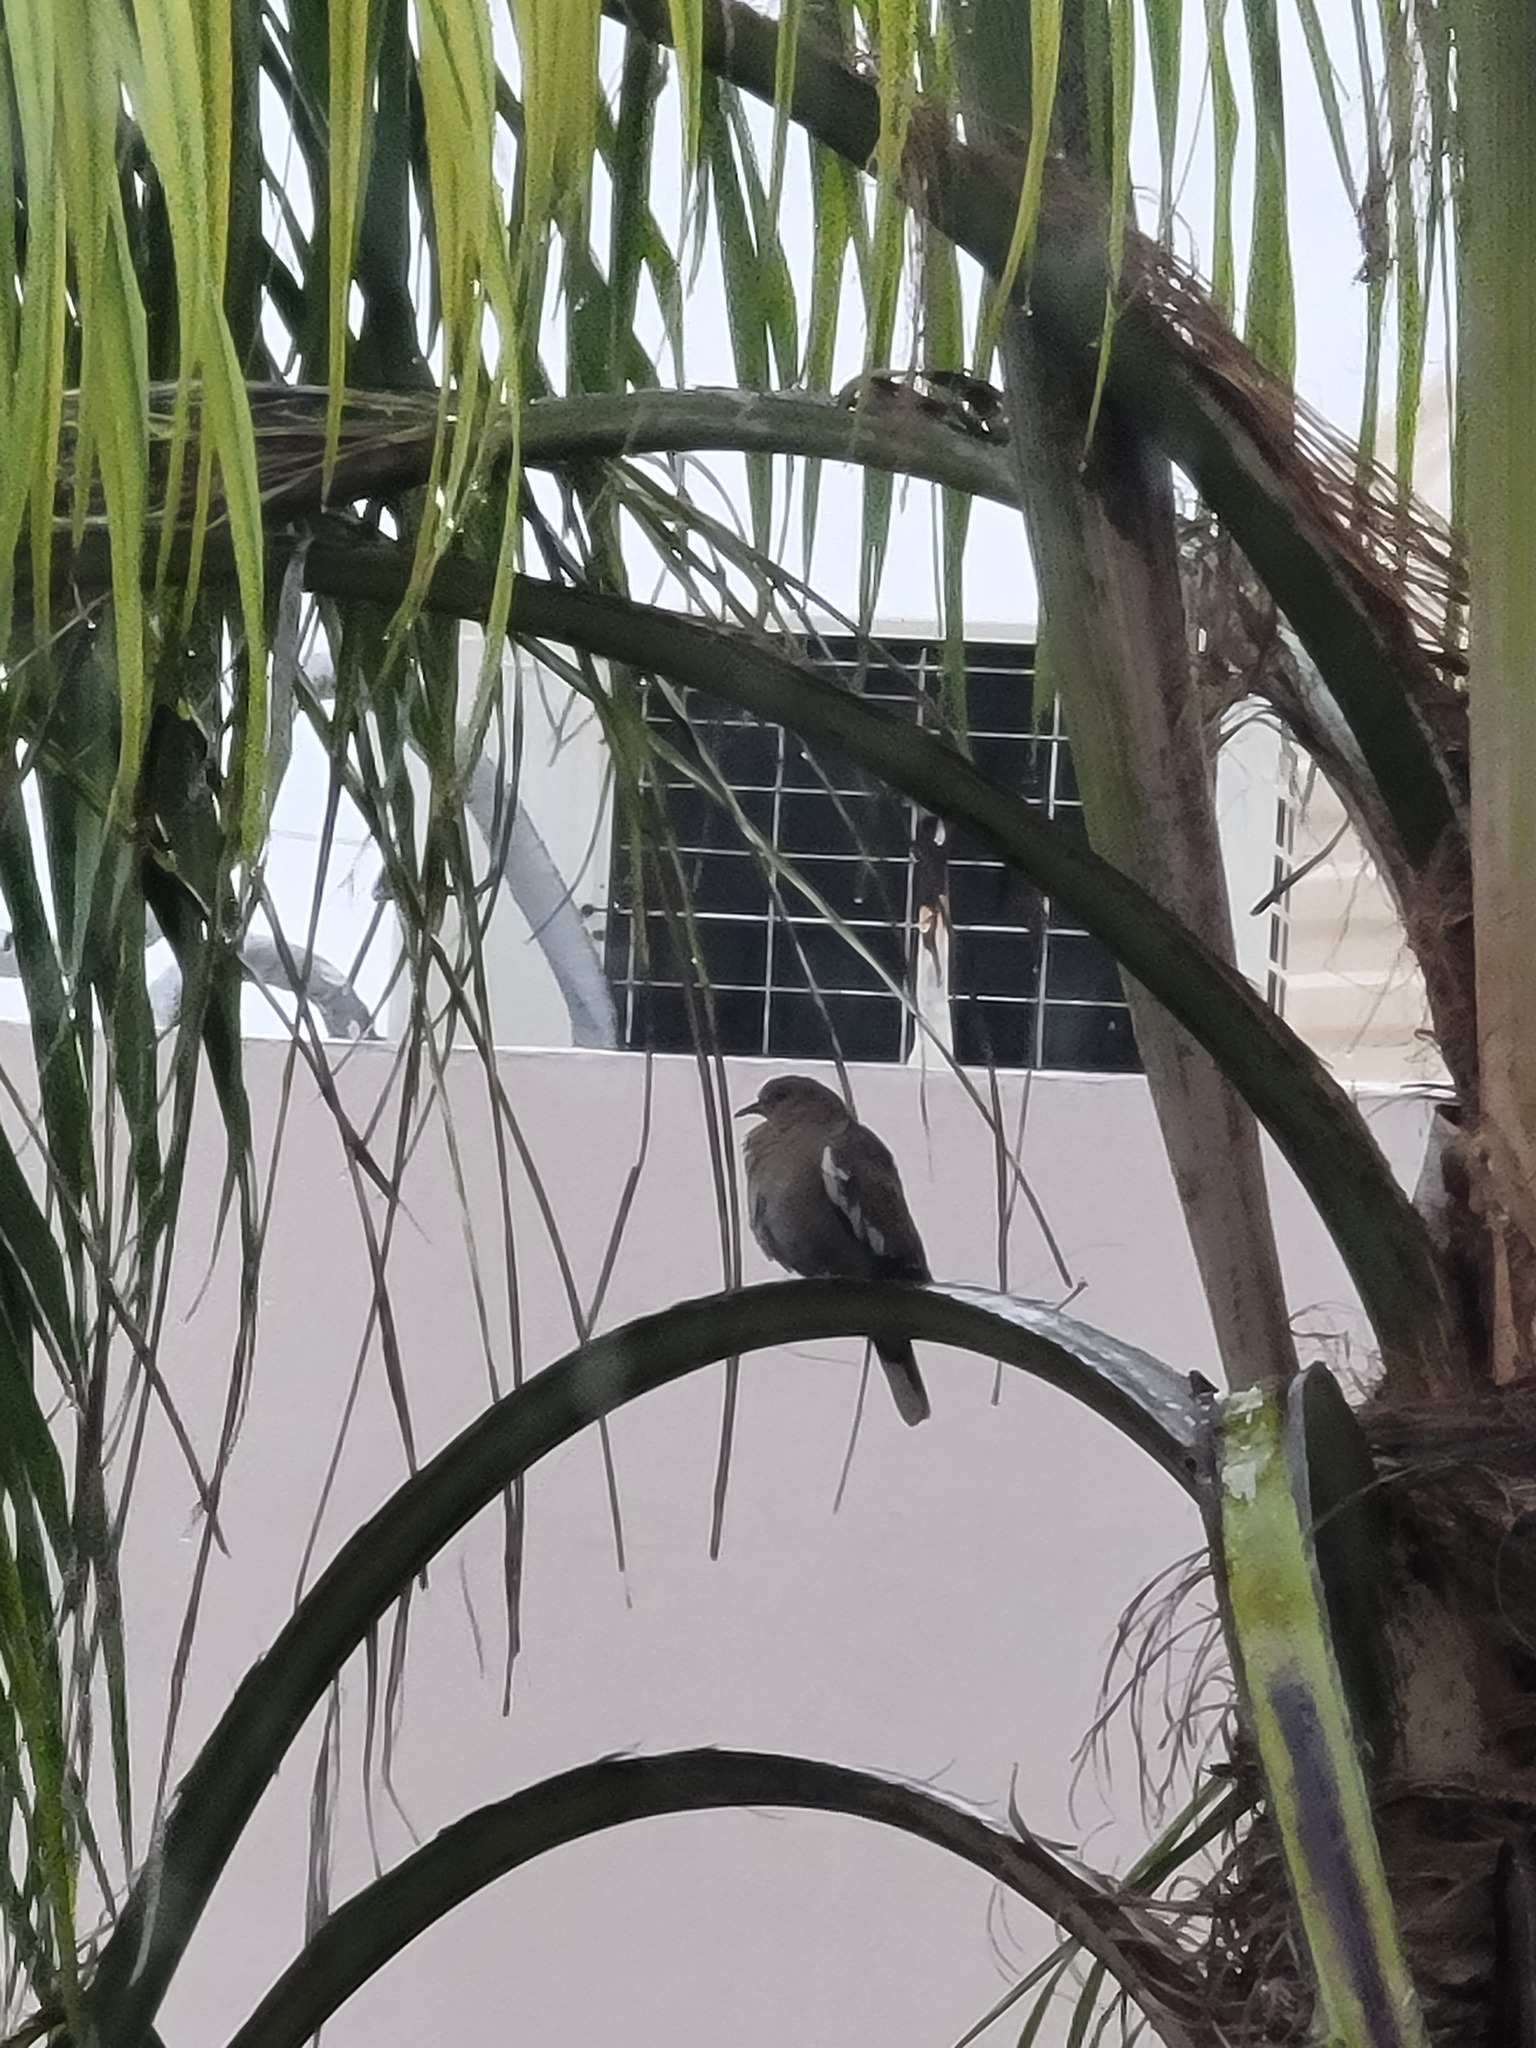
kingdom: Animalia
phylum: Chordata
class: Aves
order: Columbiformes
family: Columbidae
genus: Zenaida
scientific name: Zenaida asiatica
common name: White-winged dove
